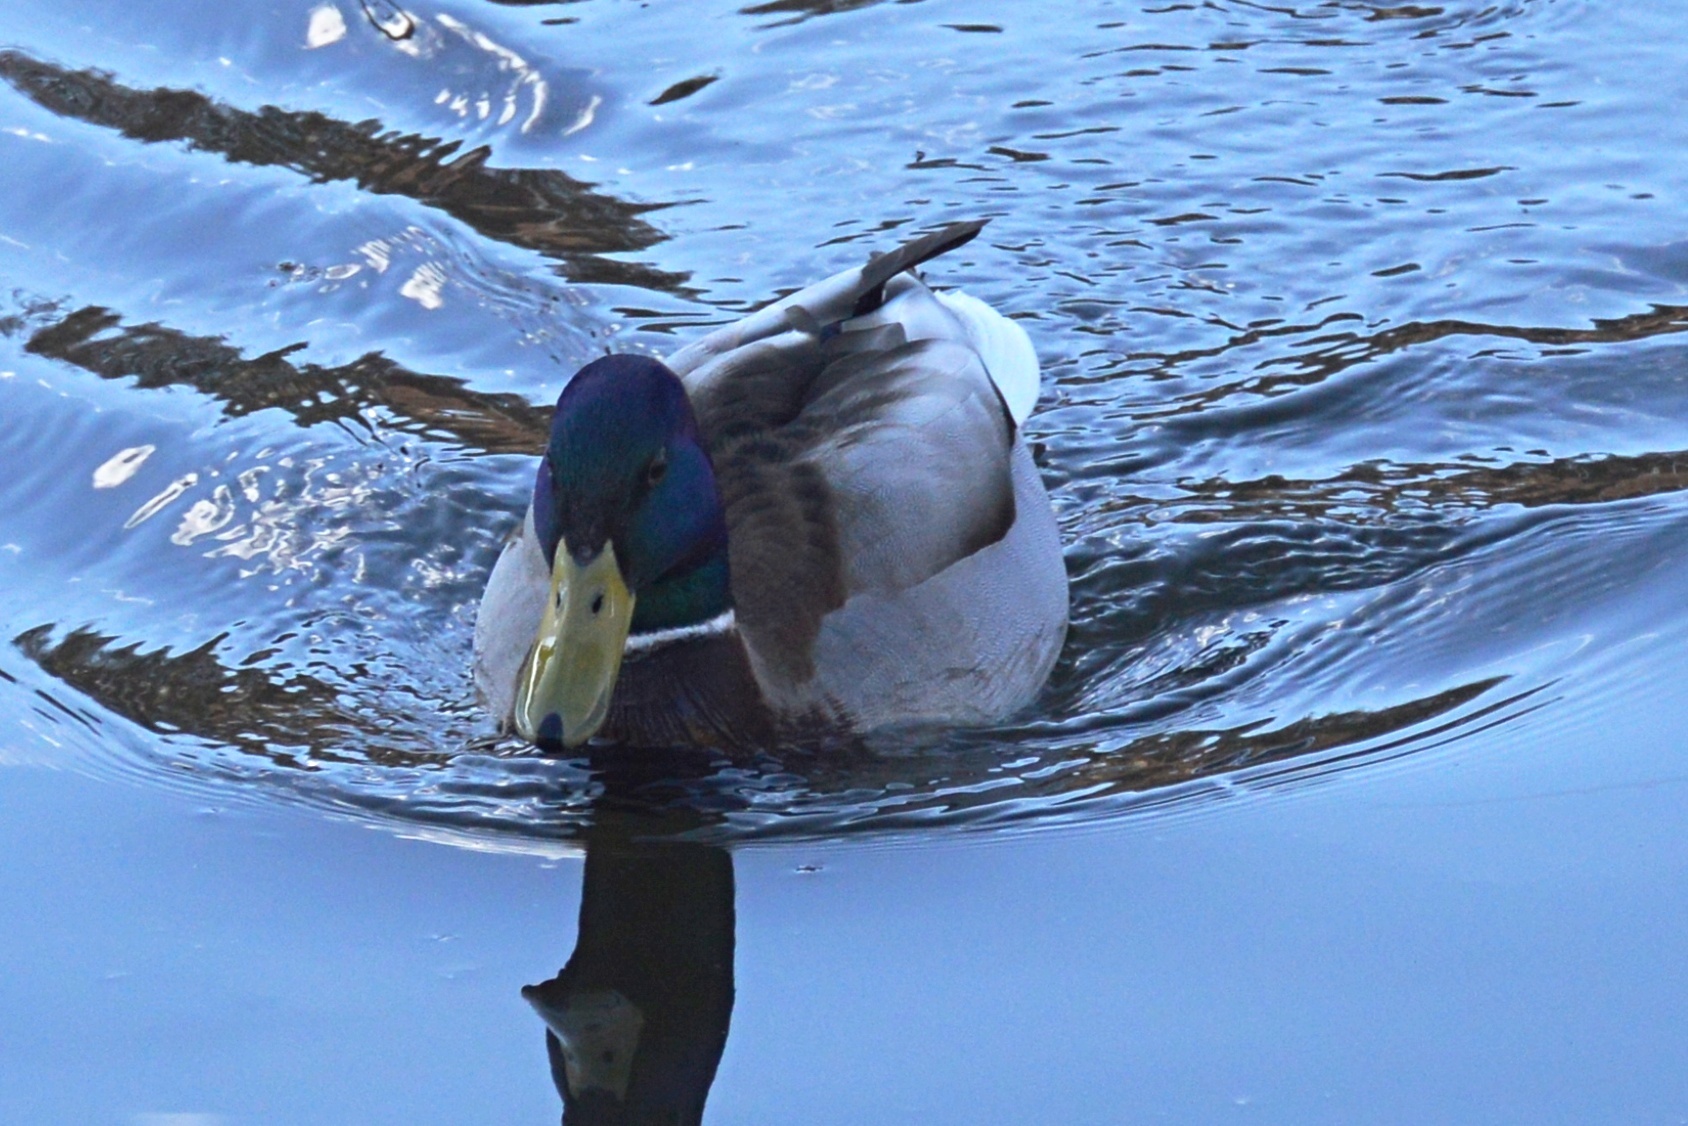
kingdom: Animalia
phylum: Chordata
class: Aves
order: Anseriformes
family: Anatidae
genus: Anas
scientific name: Anas platyrhynchos
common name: Mallard
